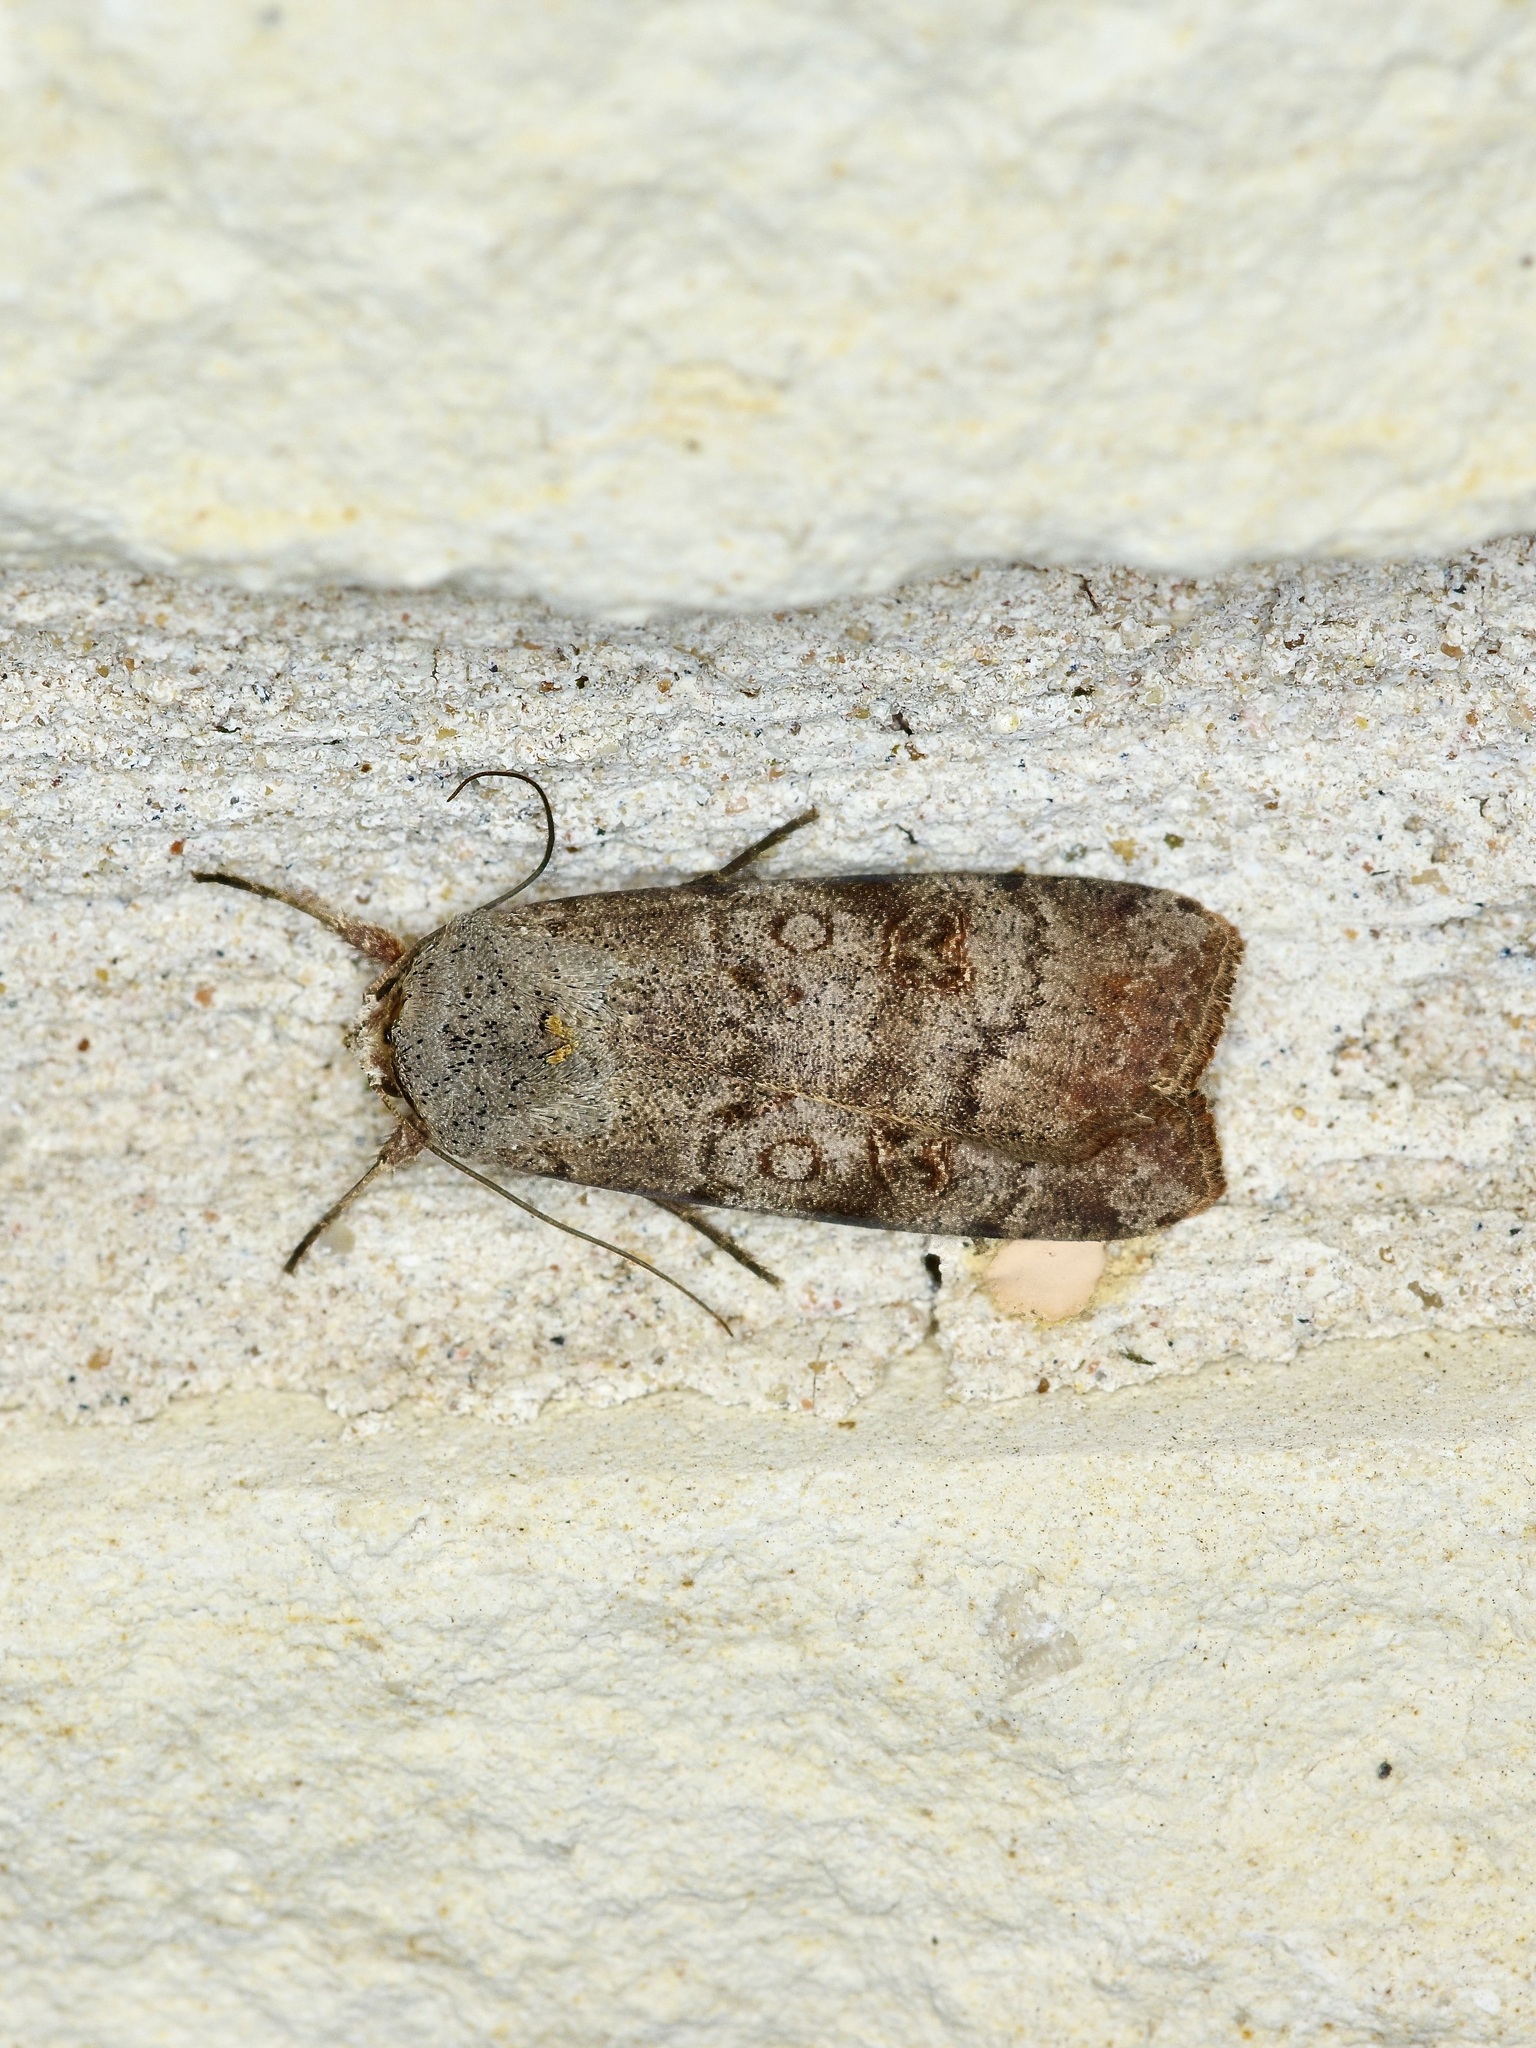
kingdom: Animalia
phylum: Arthropoda
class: Insecta
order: Lepidoptera
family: Noctuidae
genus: Anicla
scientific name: Anicla infecta
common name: Green cutworm
